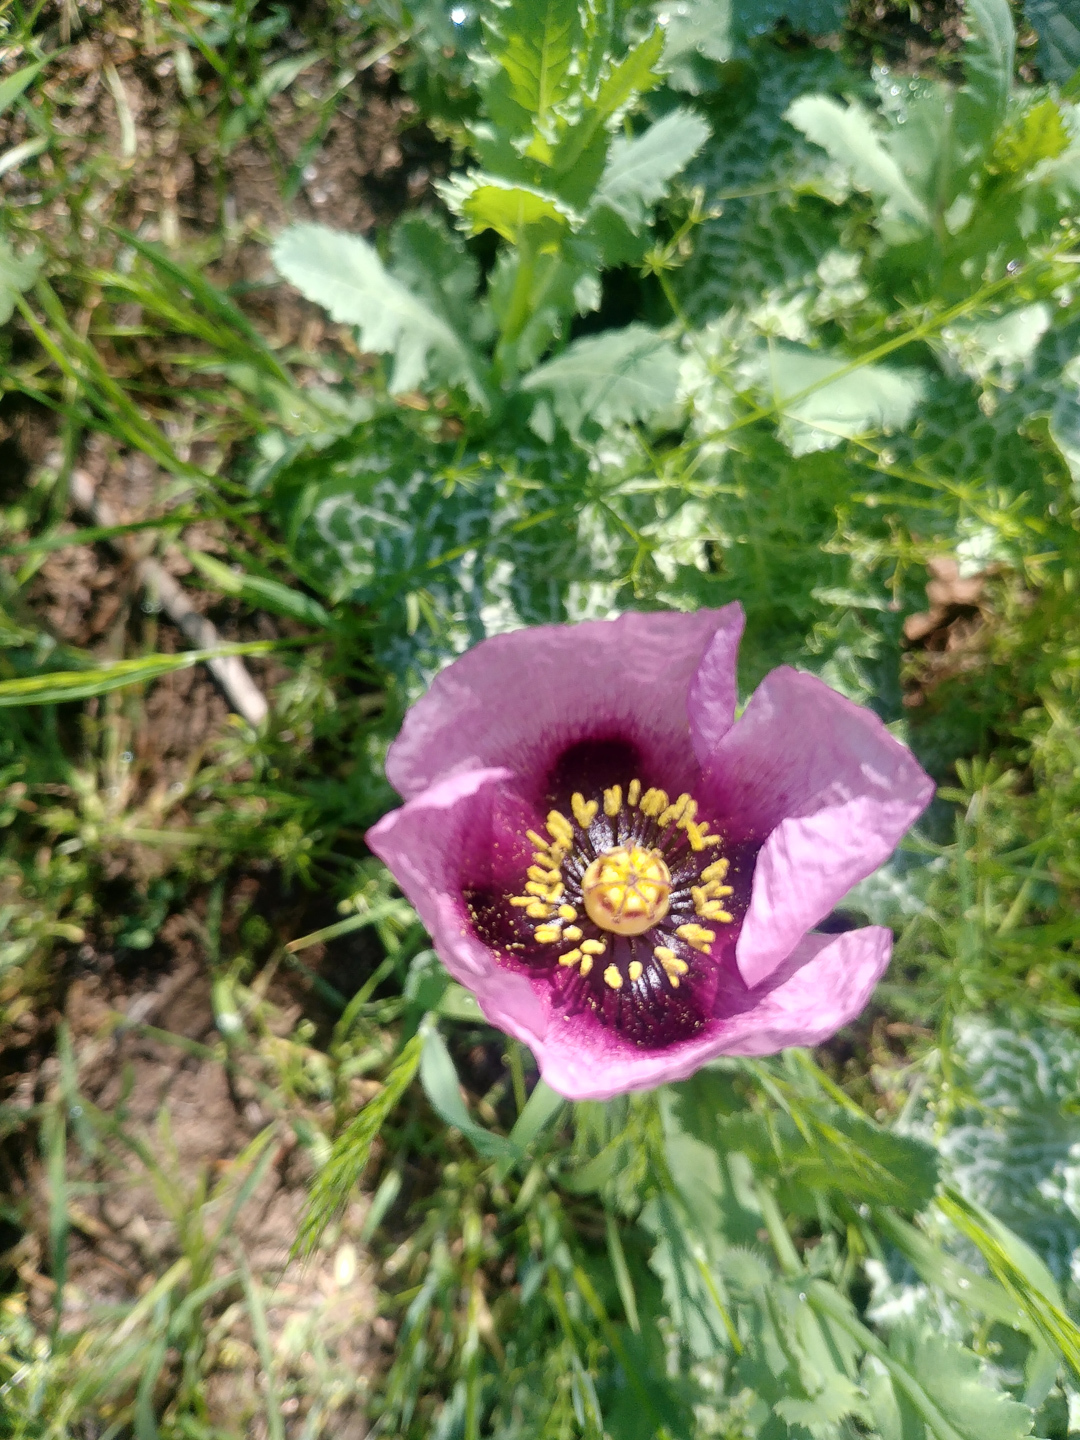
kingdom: Plantae
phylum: Tracheophyta
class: Magnoliopsida
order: Ranunculales
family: Papaveraceae
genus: Papaver
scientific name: Papaver somniferum
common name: Opium poppy
